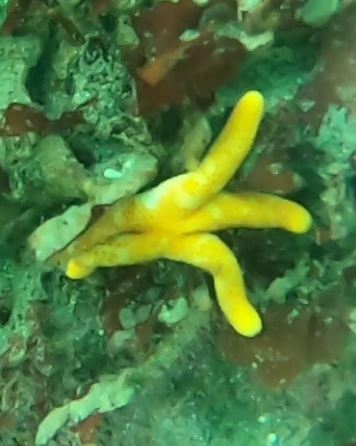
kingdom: Animalia
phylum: Echinodermata
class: Asteroidea
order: Spinulosida
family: Echinasteridae
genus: Henricia
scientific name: Henricia pumila
